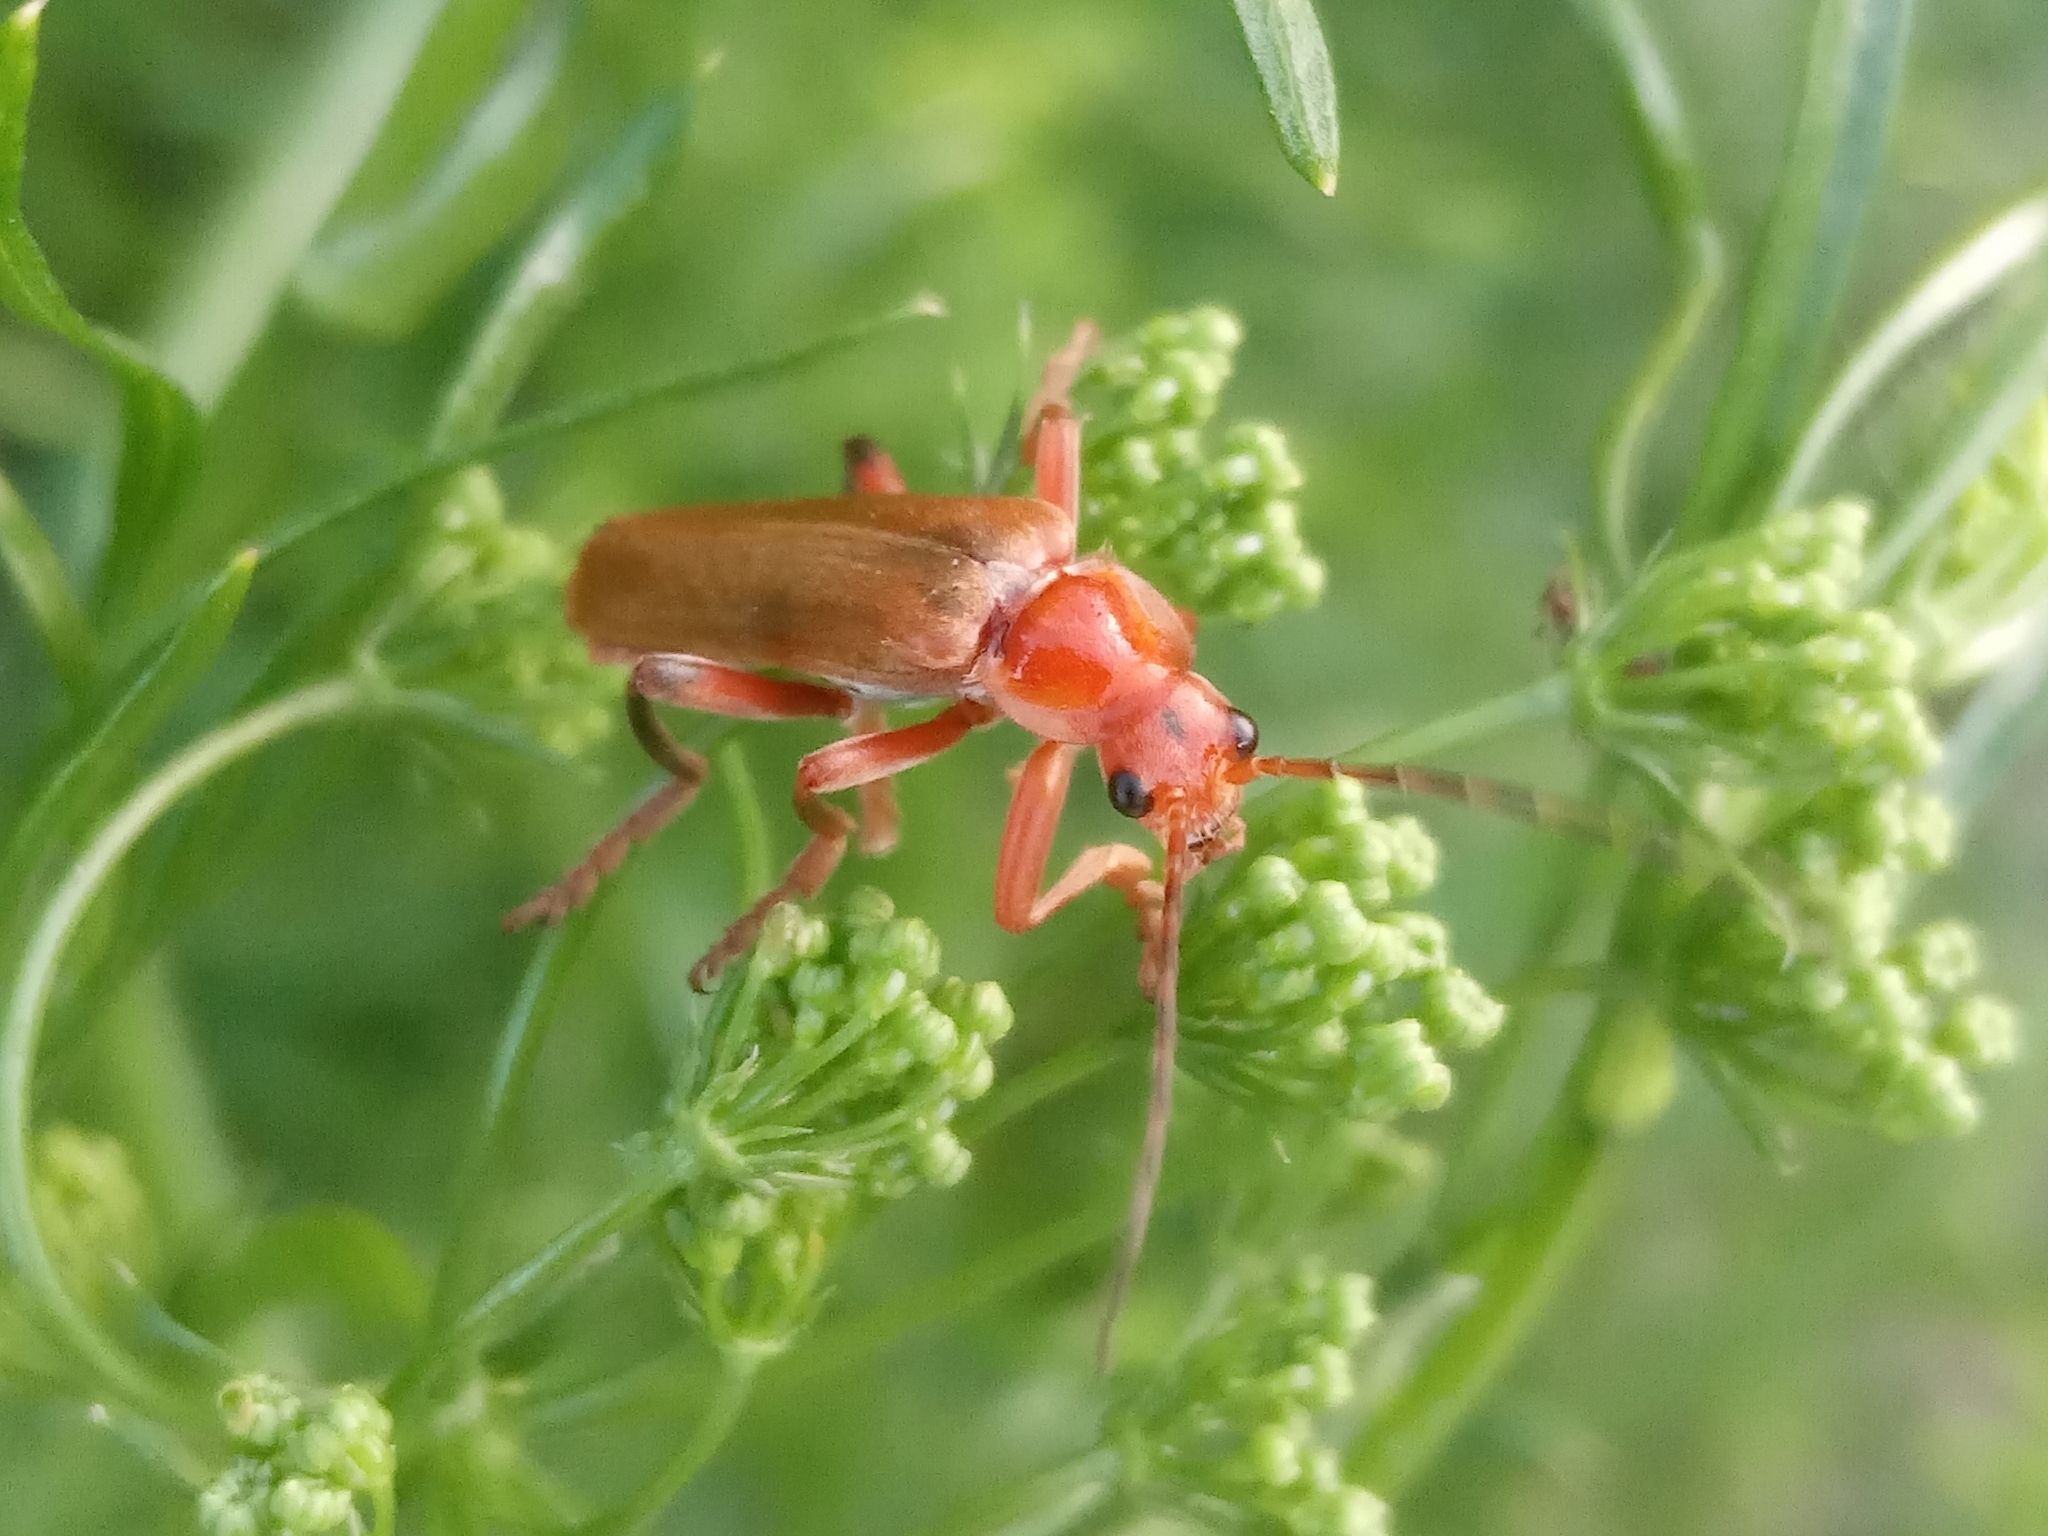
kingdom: Animalia
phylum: Arthropoda
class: Insecta
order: Coleoptera
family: Cantharidae
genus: Cantharis
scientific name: Cantharis livida
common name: Livid soldier beetle
